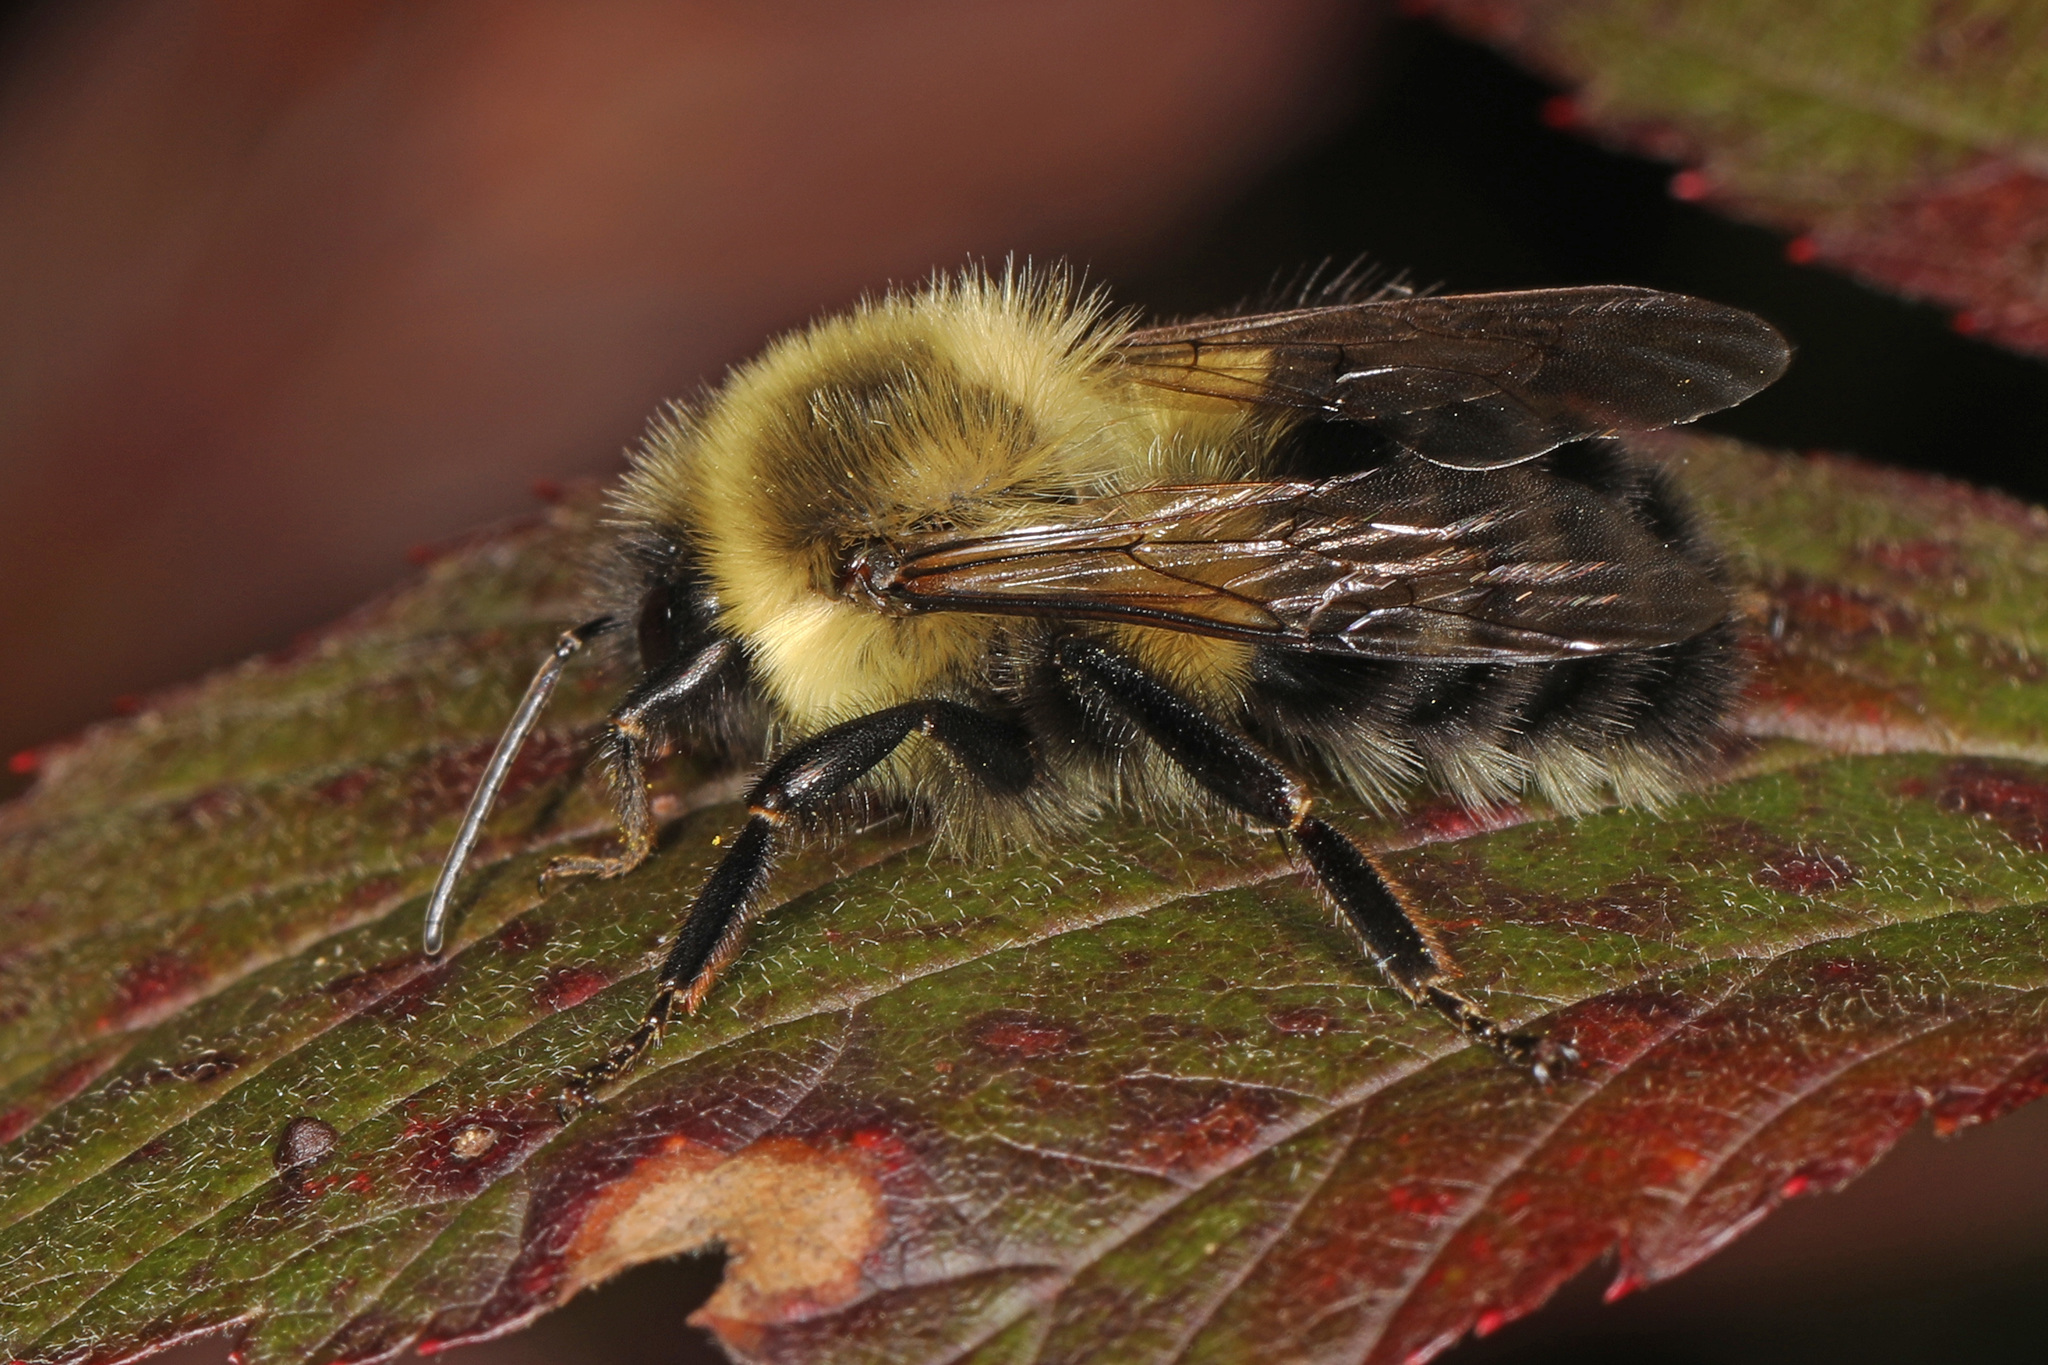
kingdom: Animalia
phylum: Arthropoda
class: Insecta
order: Hymenoptera
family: Apidae
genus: Bombus
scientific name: Bombus impatiens
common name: Common eastern bumble bee
